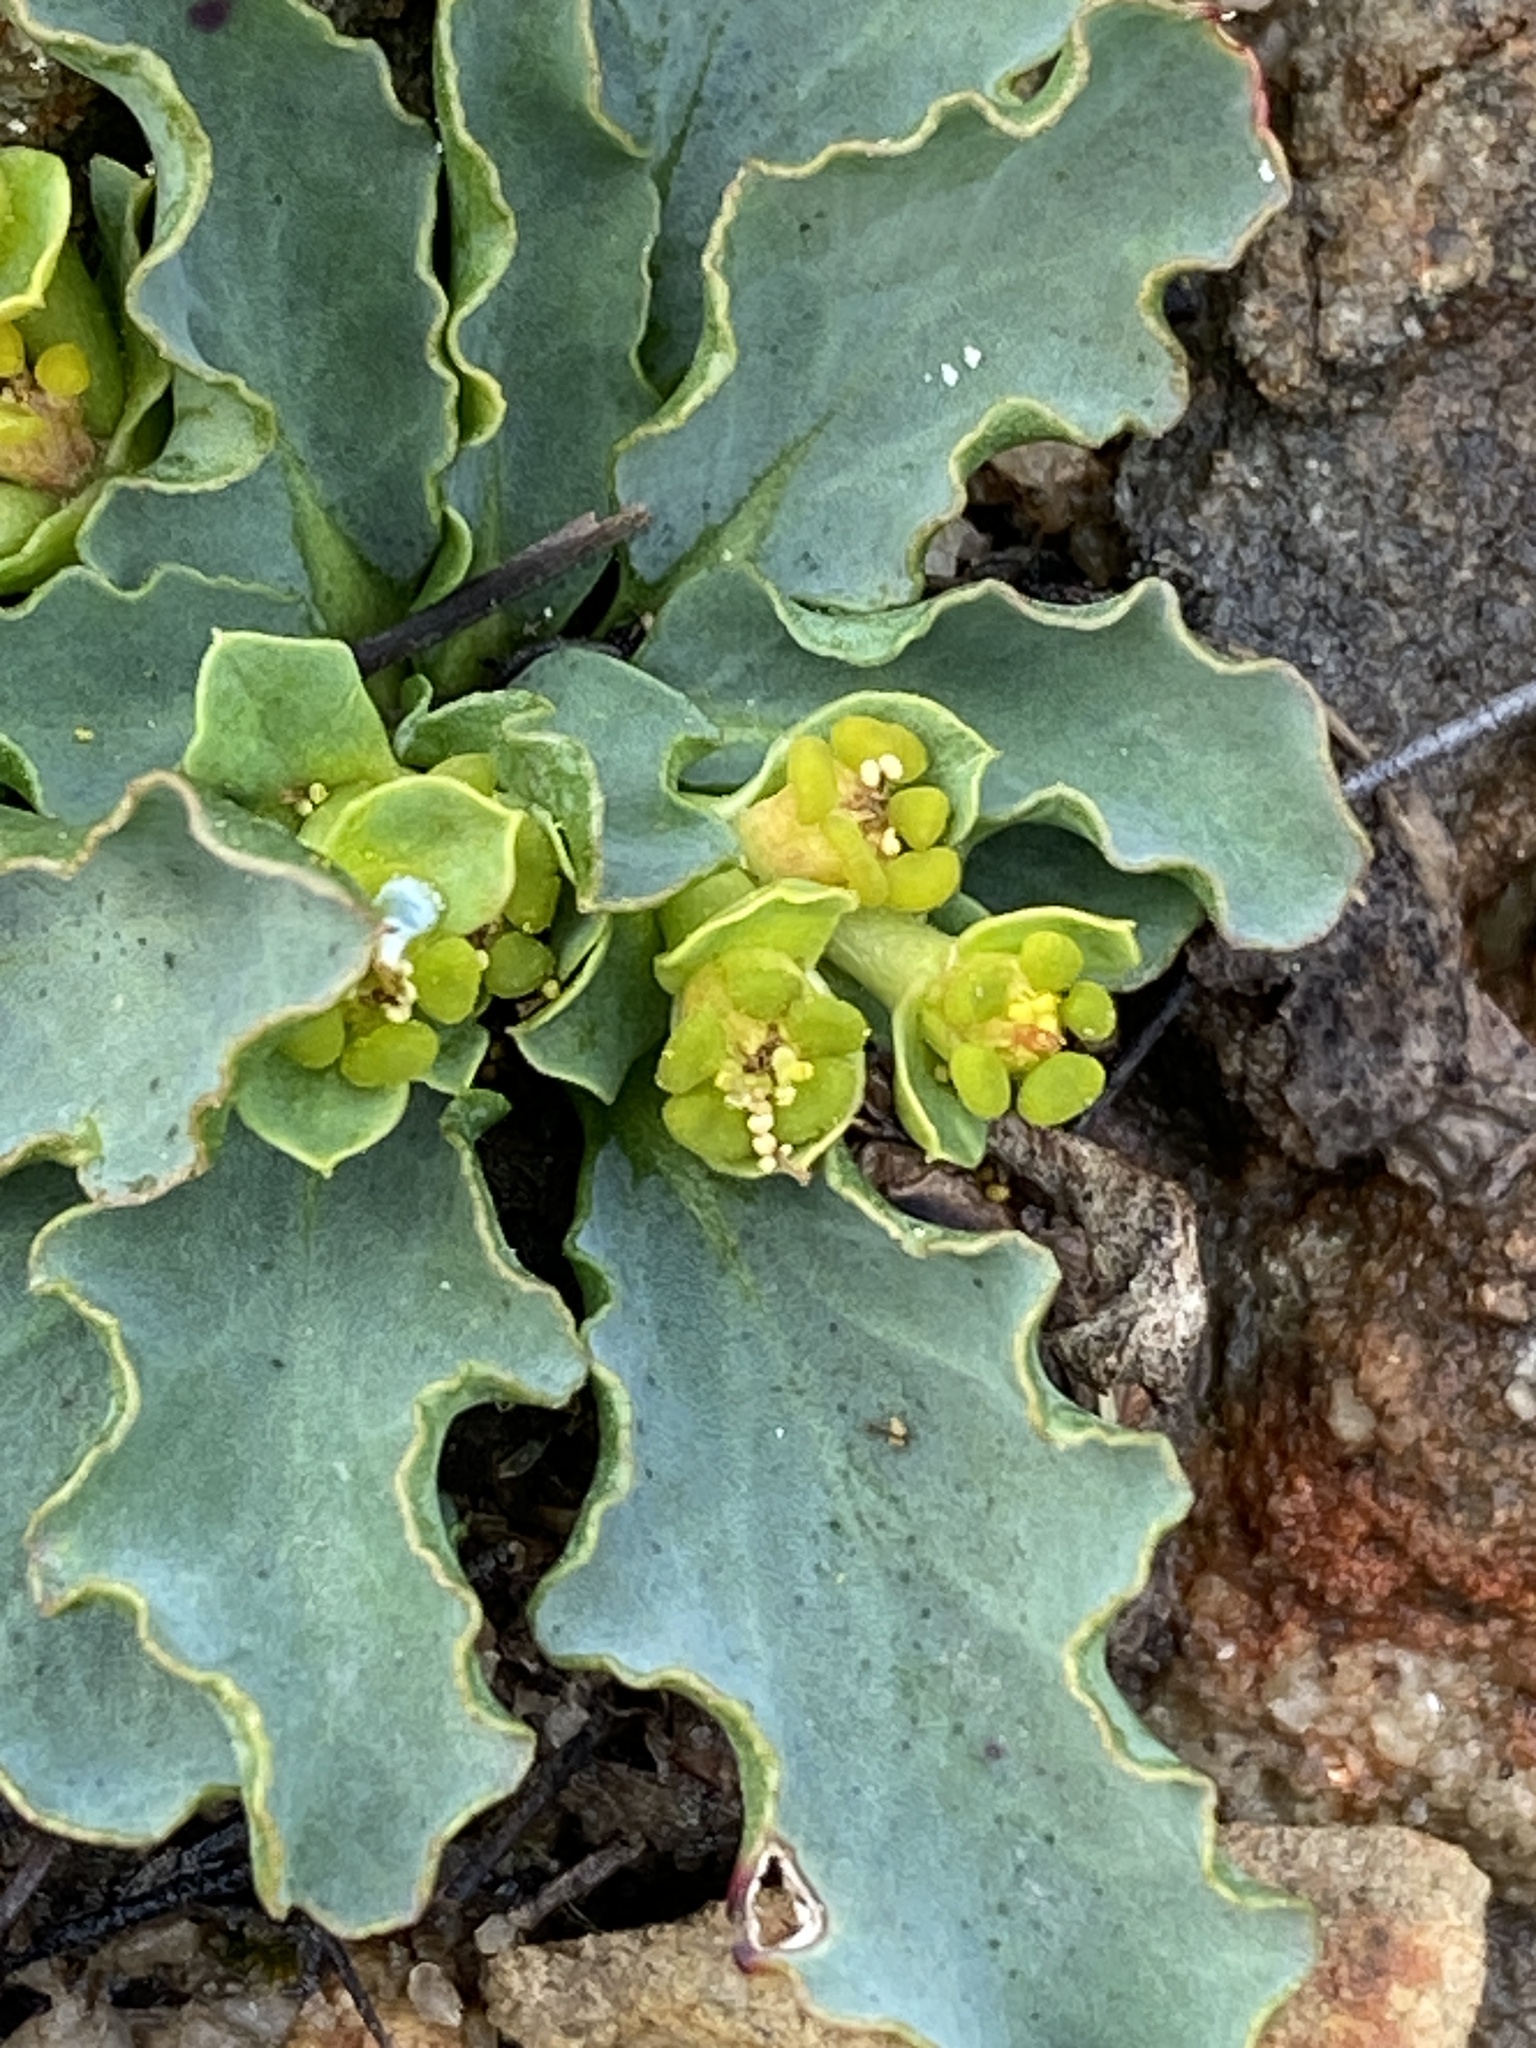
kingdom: Plantae
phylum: Tracheophyta
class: Magnoliopsida
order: Malpighiales
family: Euphorbiaceae
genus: Euphorbia
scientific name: Euphorbia tuberosa
